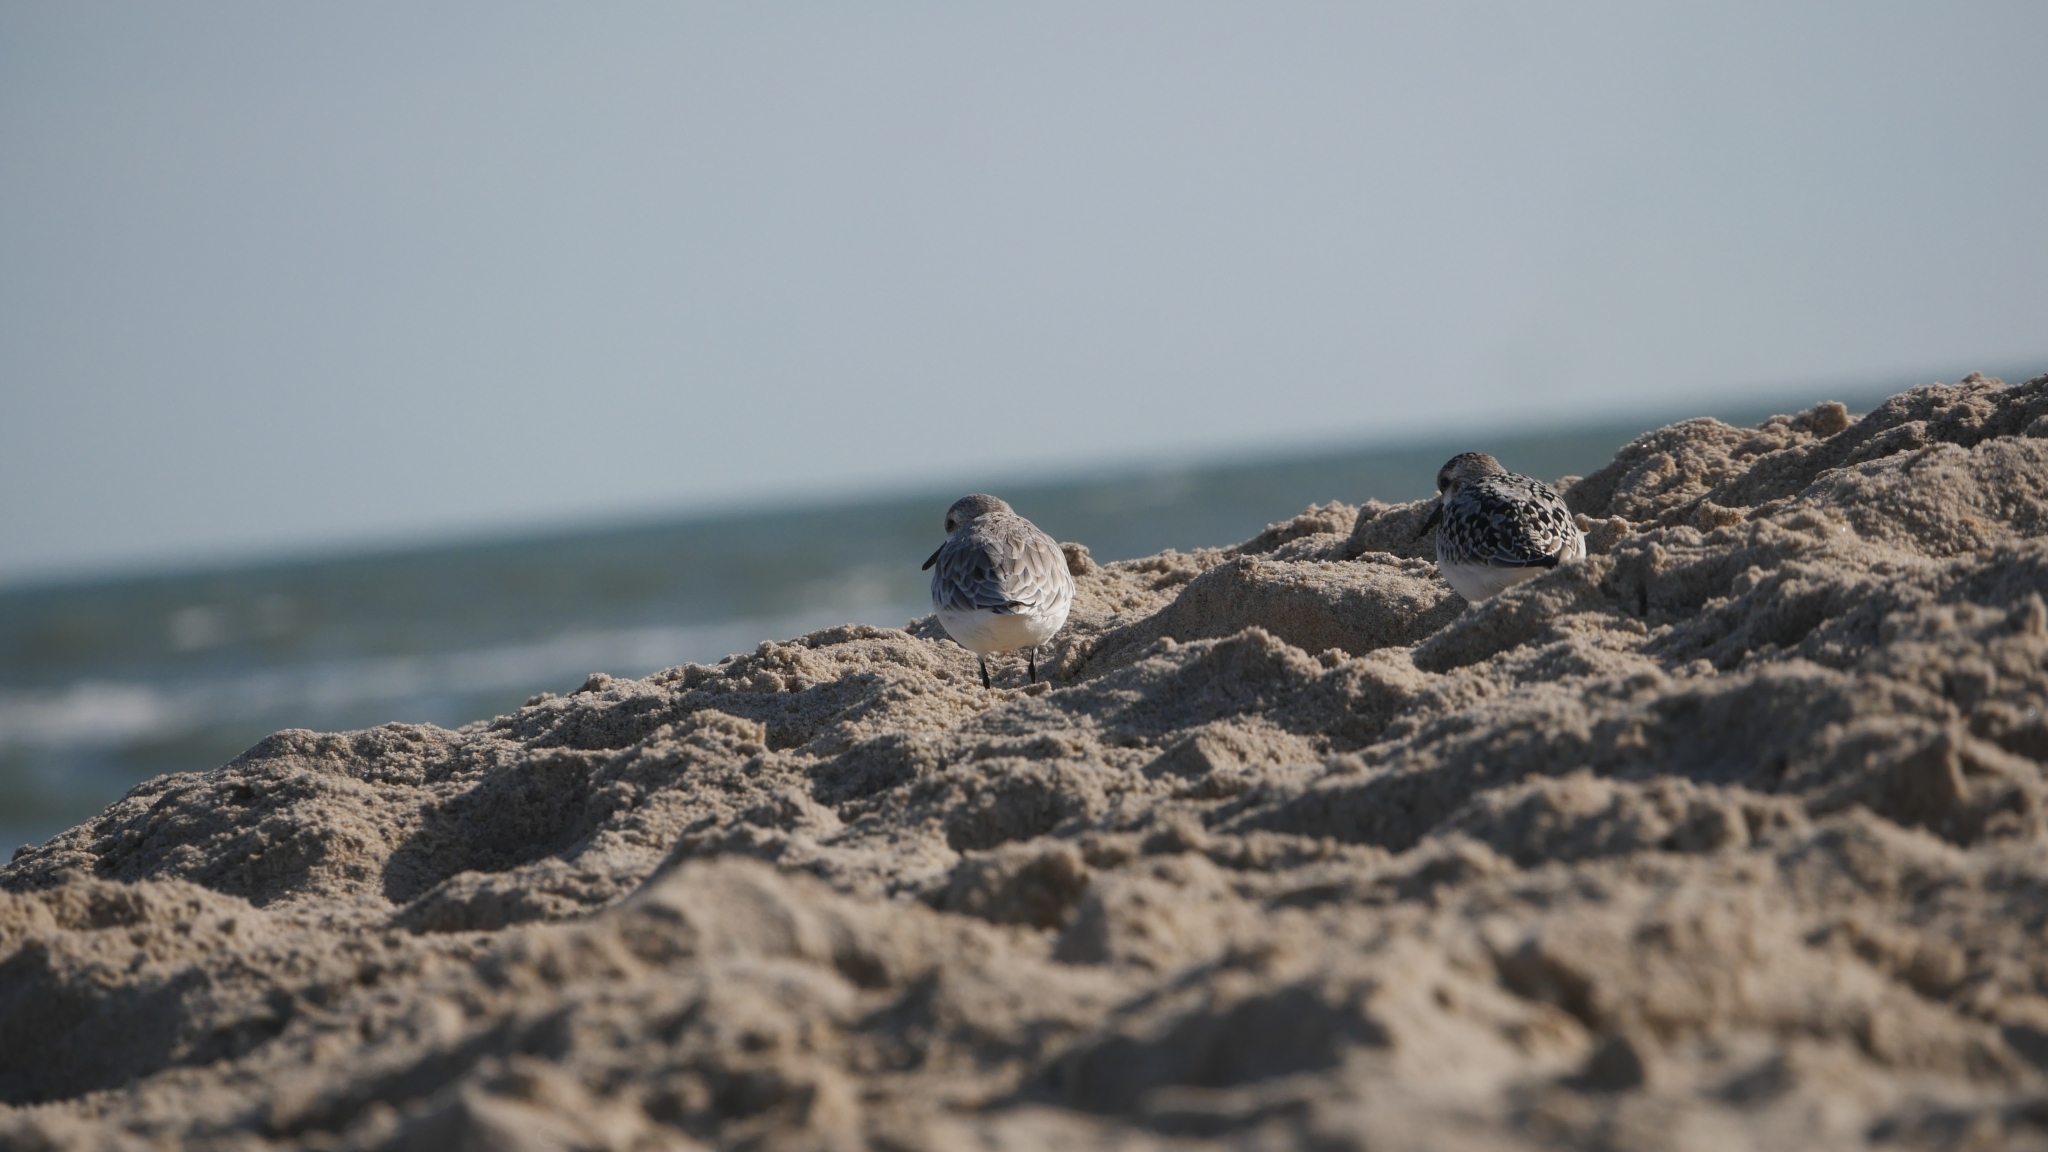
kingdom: Animalia
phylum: Chordata
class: Aves
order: Charadriiformes
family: Scolopacidae
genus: Calidris
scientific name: Calidris alba
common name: Sanderling
